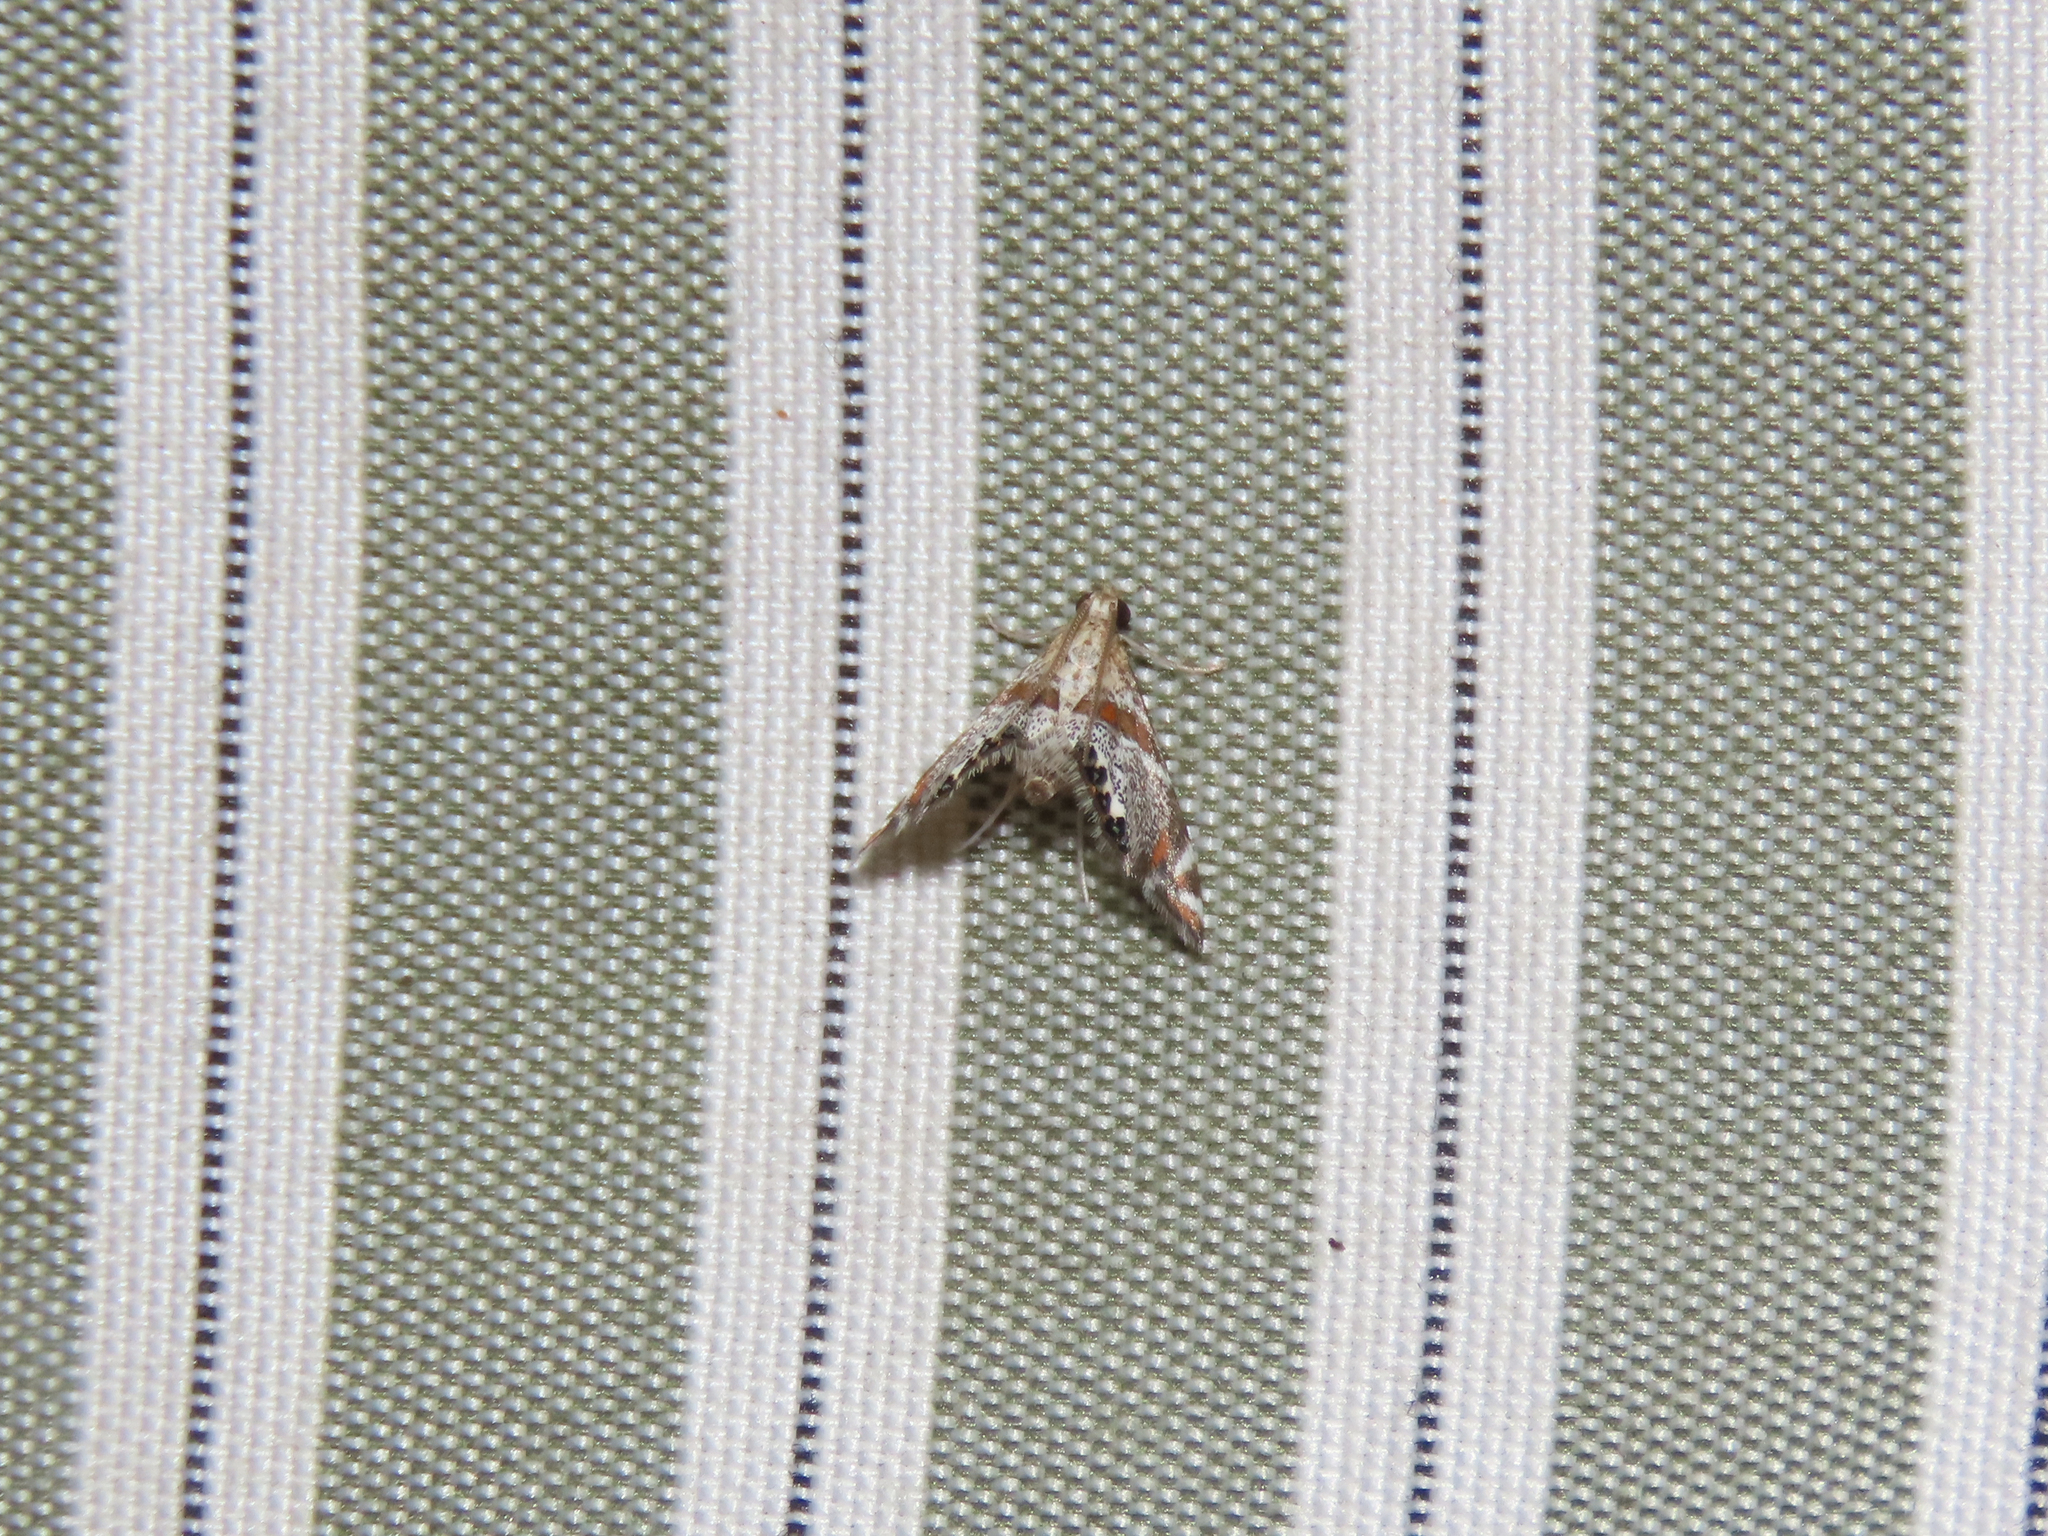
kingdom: Animalia
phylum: Arthropoda
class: Insecta
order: Lepidoptera
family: Crambidae
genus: Petrophila
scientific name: Petrophila jaliscalis
